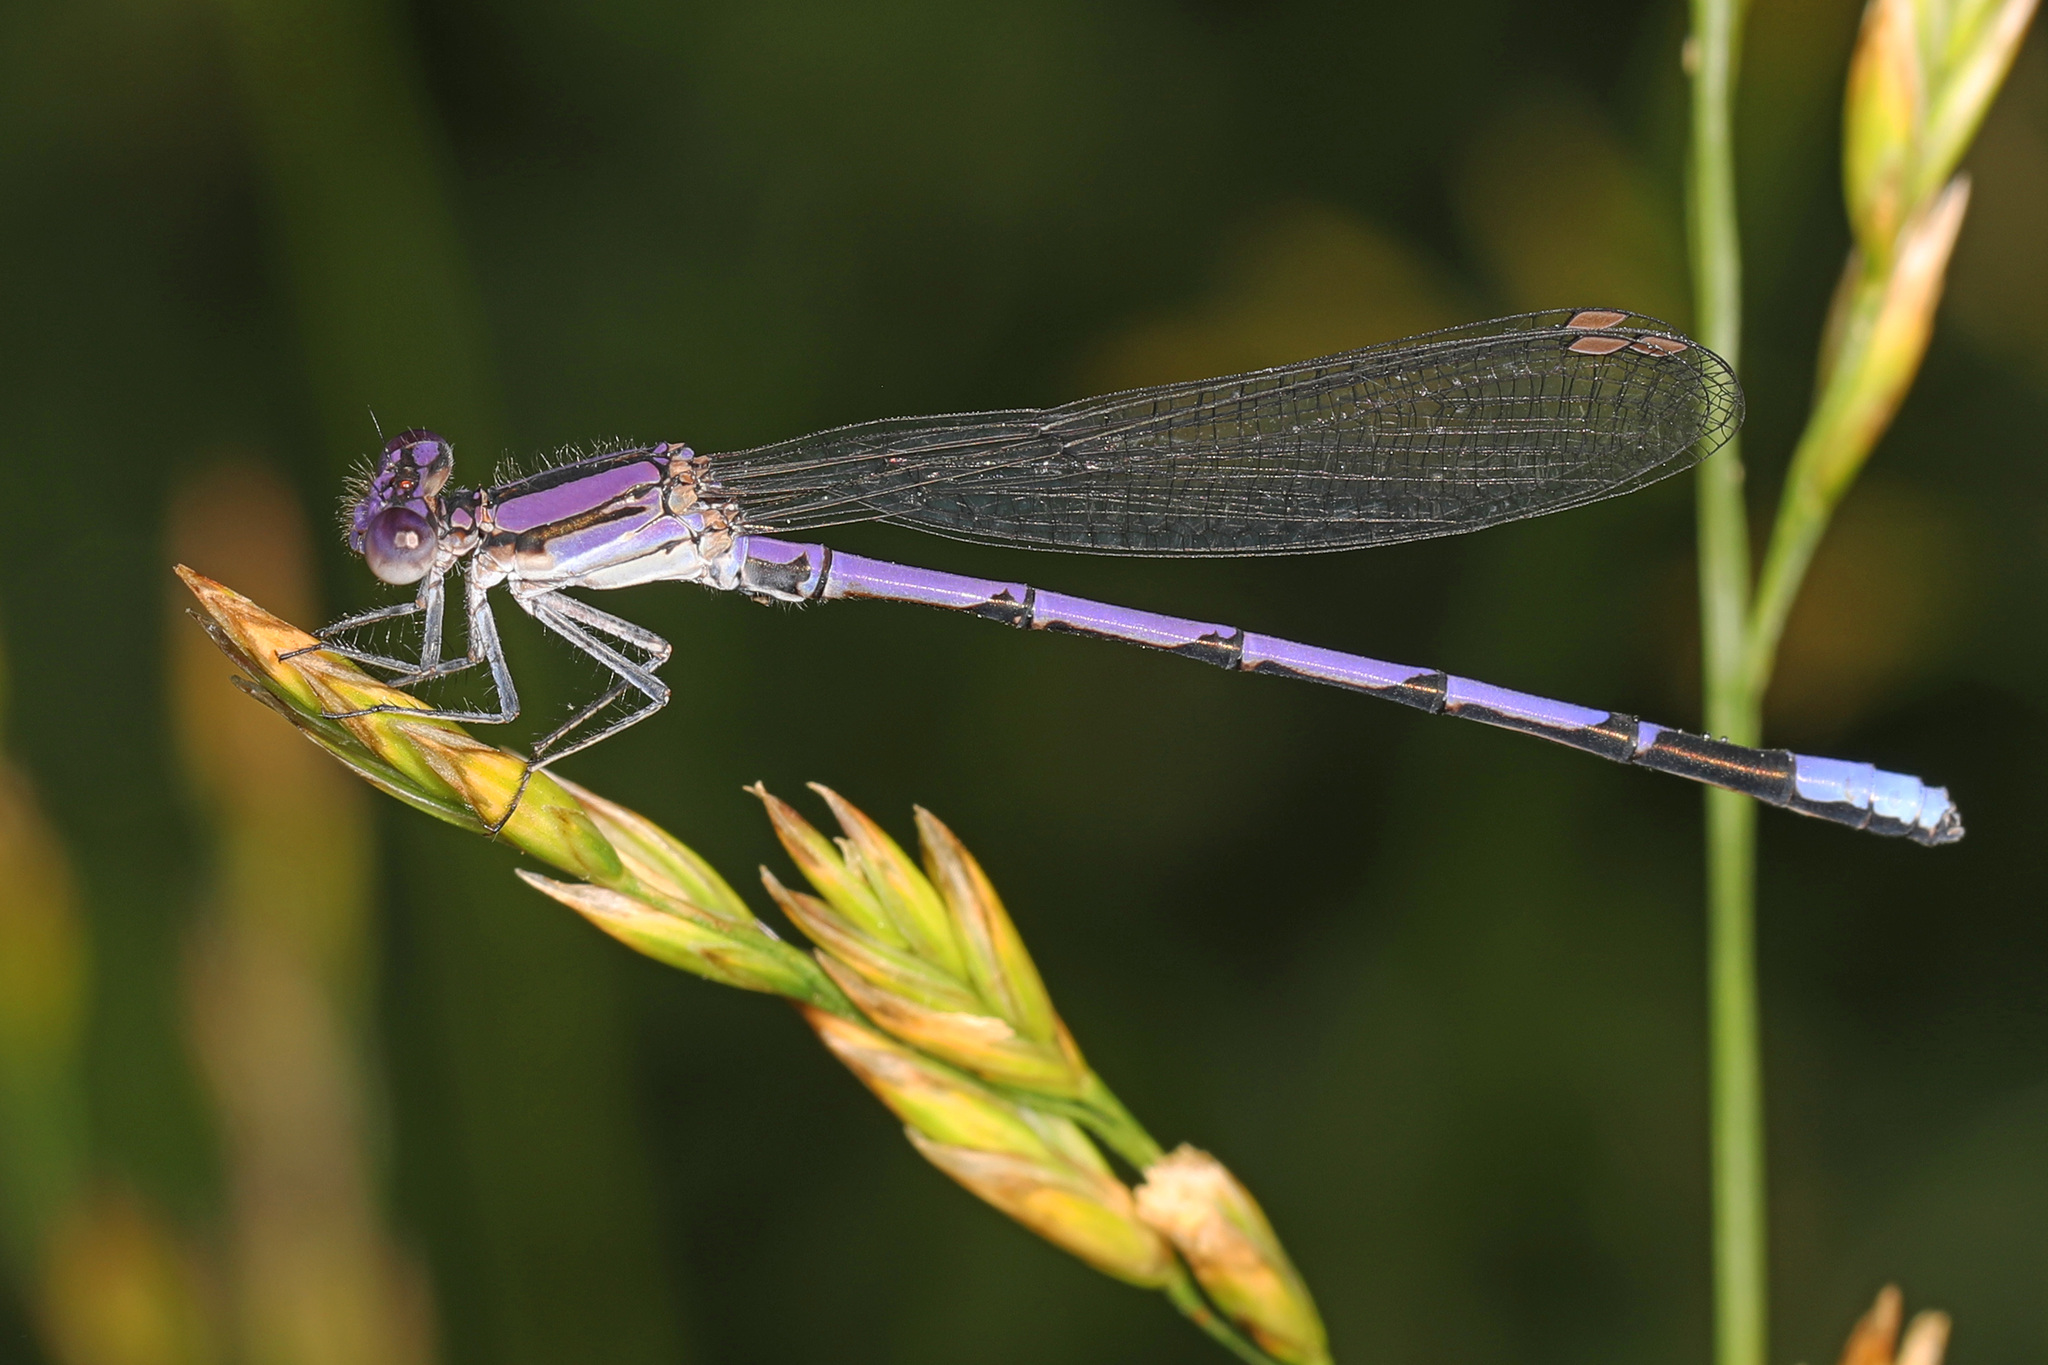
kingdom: Animalia
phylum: Arthropoda
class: Insecta
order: Odonata
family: Coenagrionidae
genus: Argia
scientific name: Argia fumipennis
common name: Variable dancer
